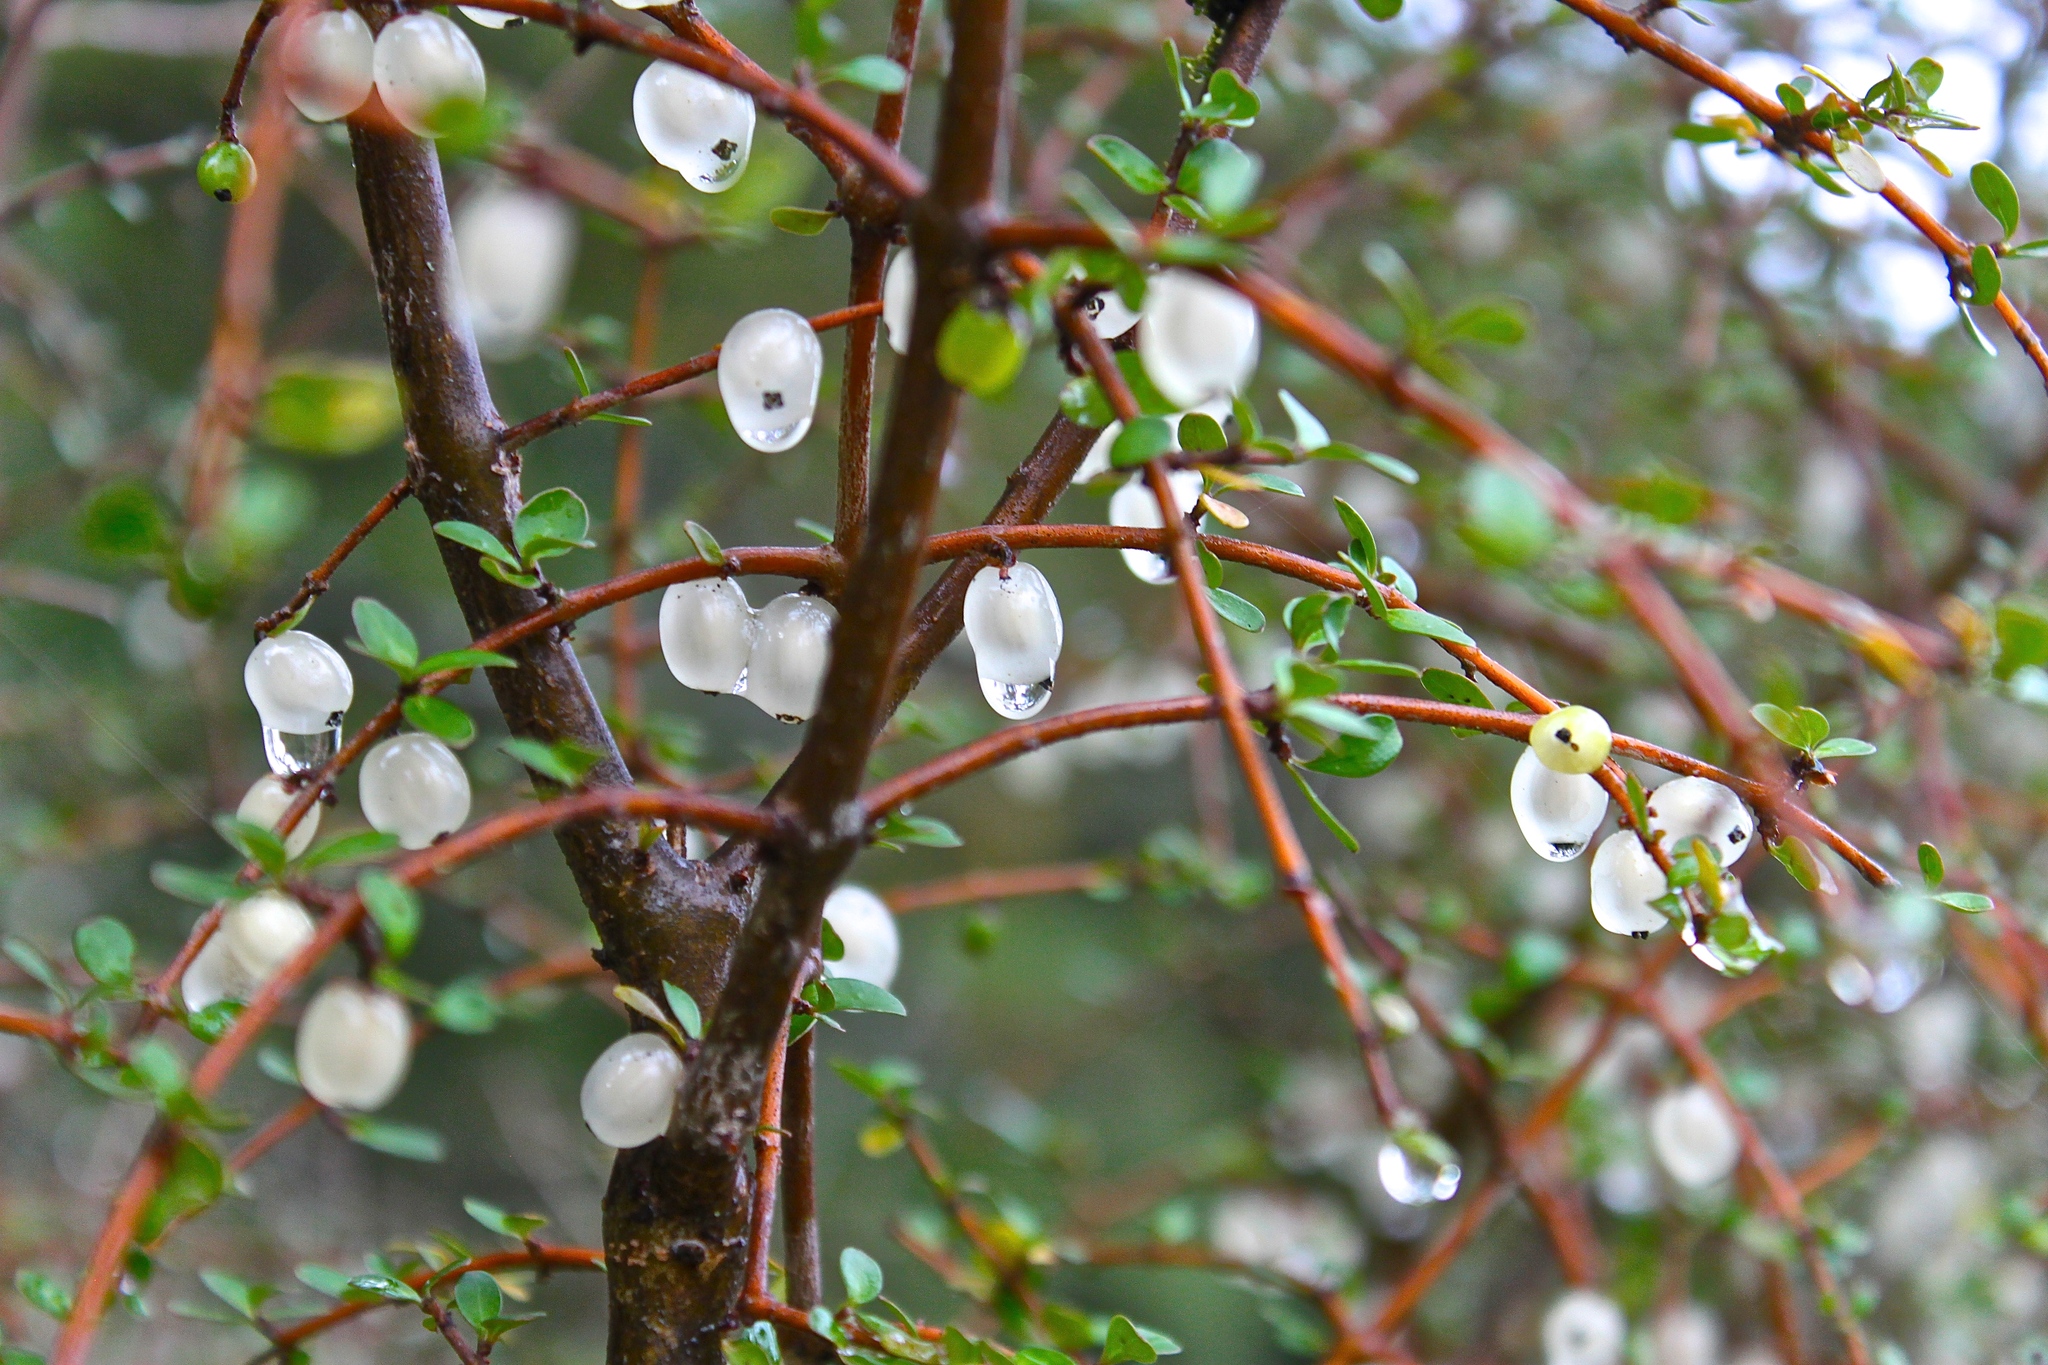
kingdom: Plantae
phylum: Tracheophyta
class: Magnoliopsida
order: Gentianales
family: Rubiaceae
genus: Coprosma
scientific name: Coprosma rigida
